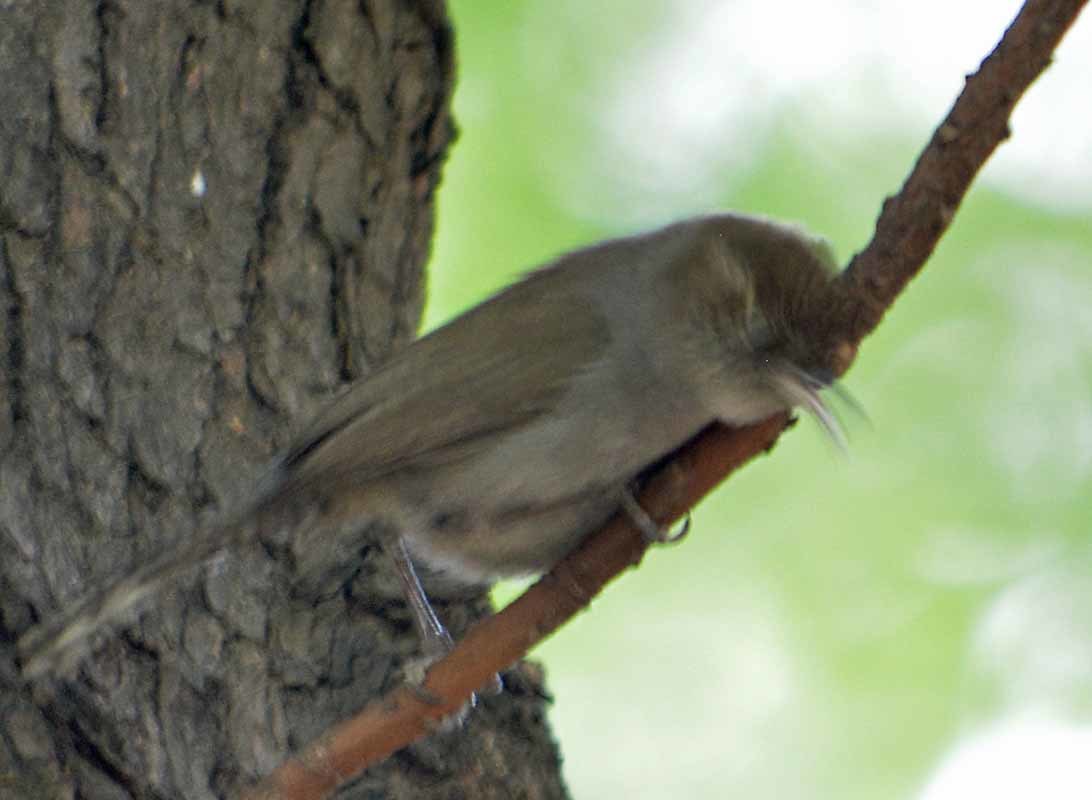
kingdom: Animalia
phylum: Chordata
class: Aves
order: Passeriformes
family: Troglodytidae
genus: Thryomanes
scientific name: Thryomanes bewickii
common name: Bewick's wren
